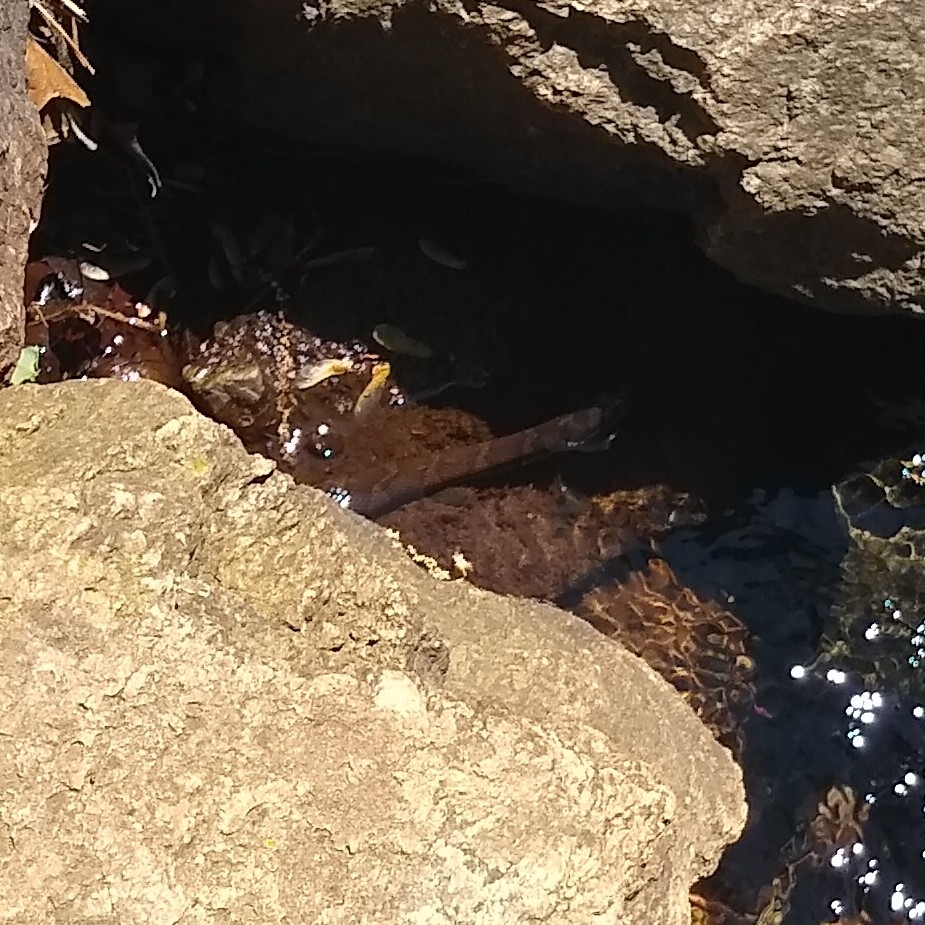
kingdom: Animalia
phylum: Chordata
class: Squamata
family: Colubridae
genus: Nerodia
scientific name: Nerodia sipedon
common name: Northern water snake
